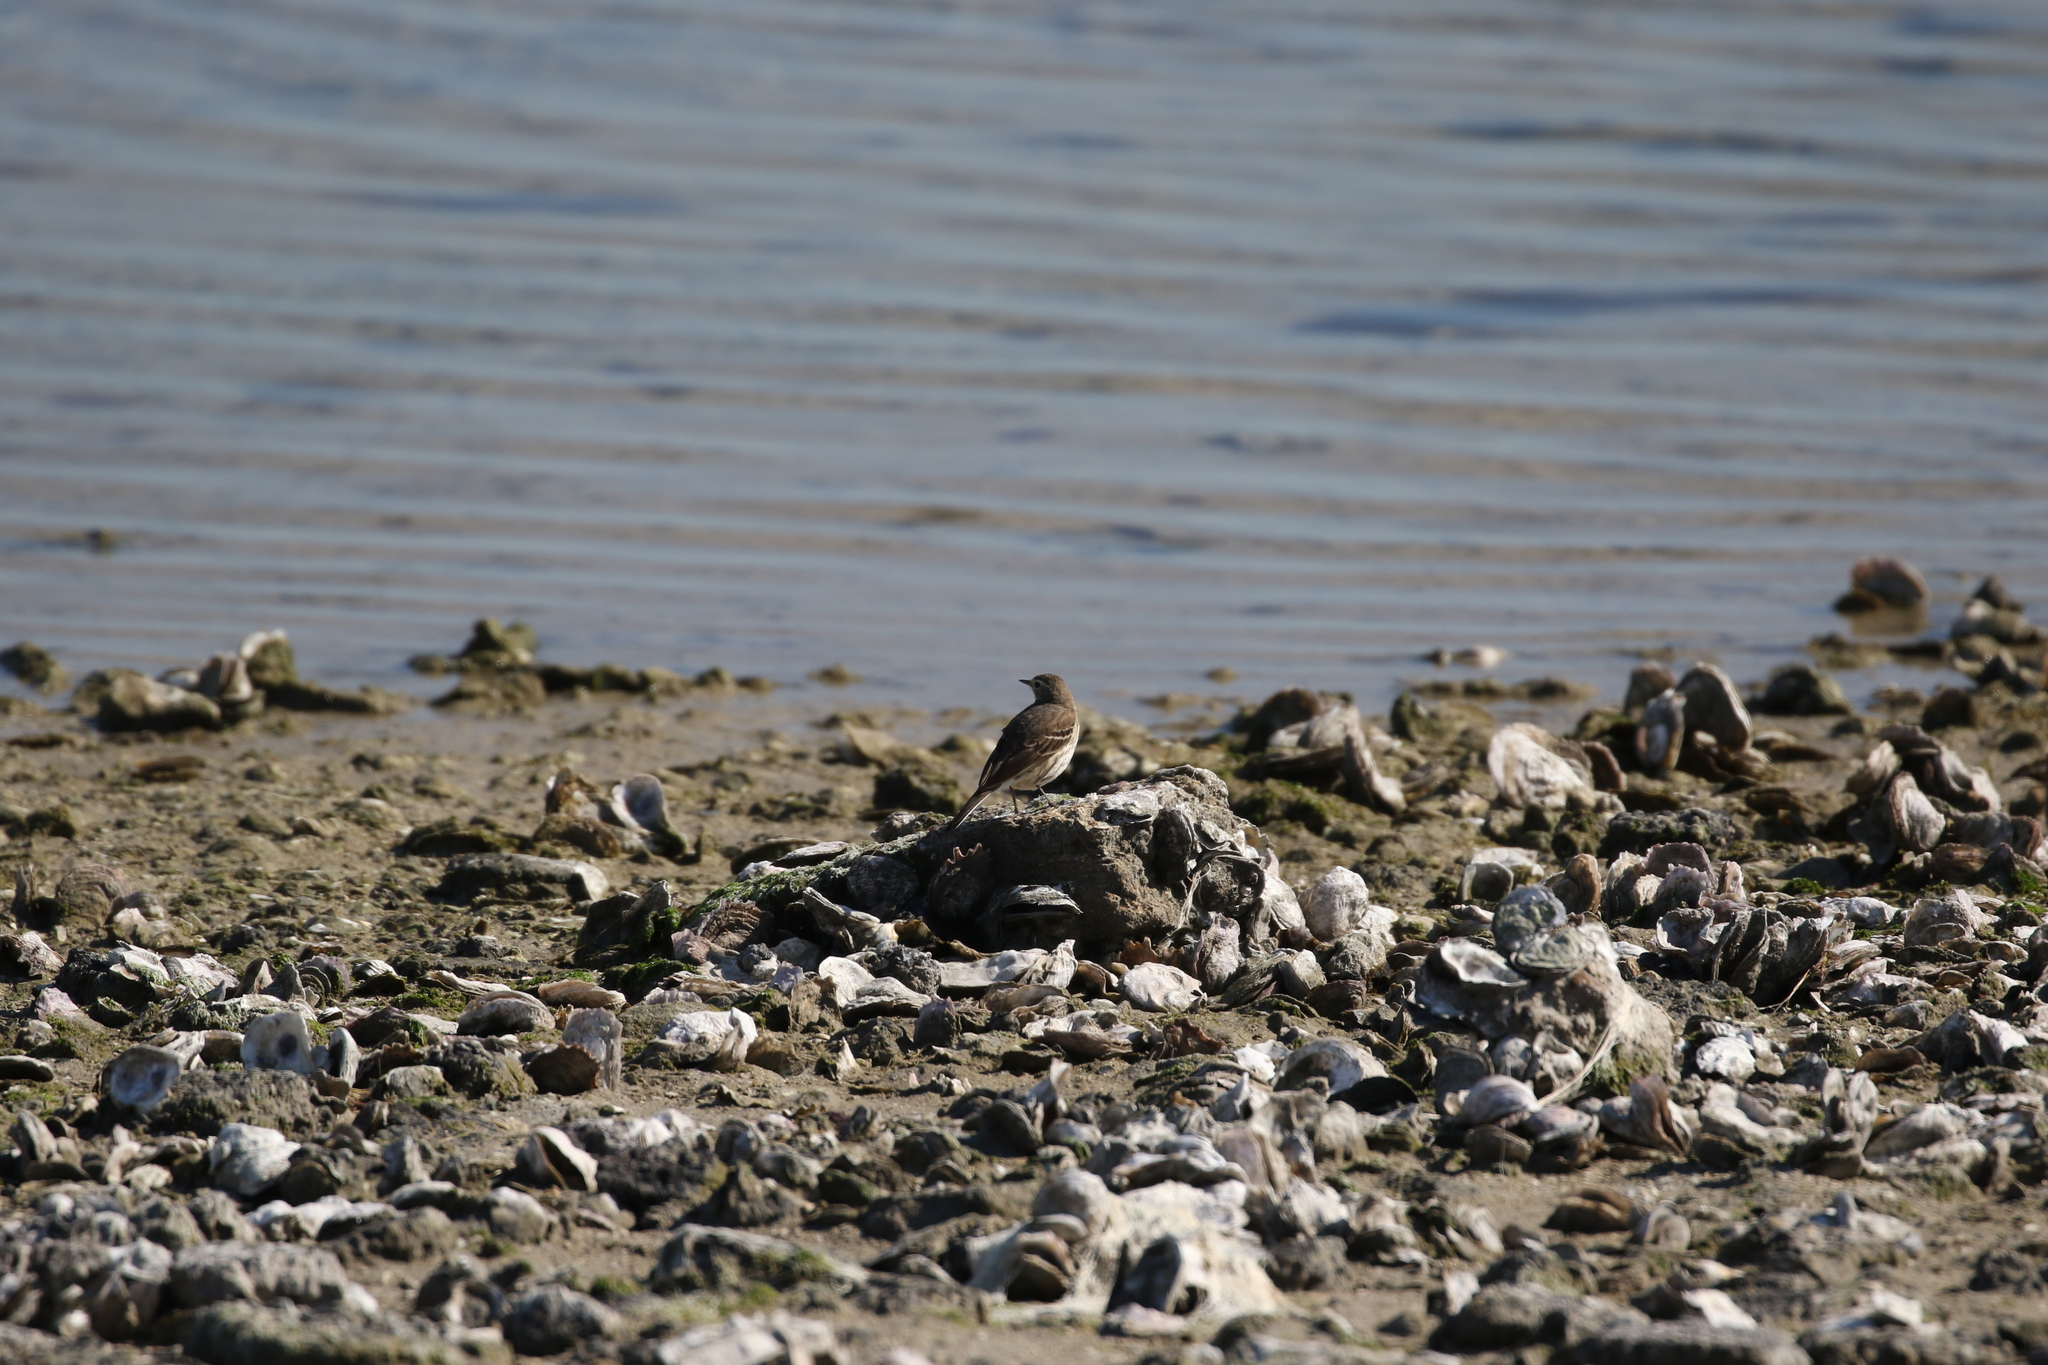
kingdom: Animalia
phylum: Chordata
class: Aves
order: Passeriformes
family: Motacillidae
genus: Anthus
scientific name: Anthus rubescens
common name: Buff-bellied pipit
